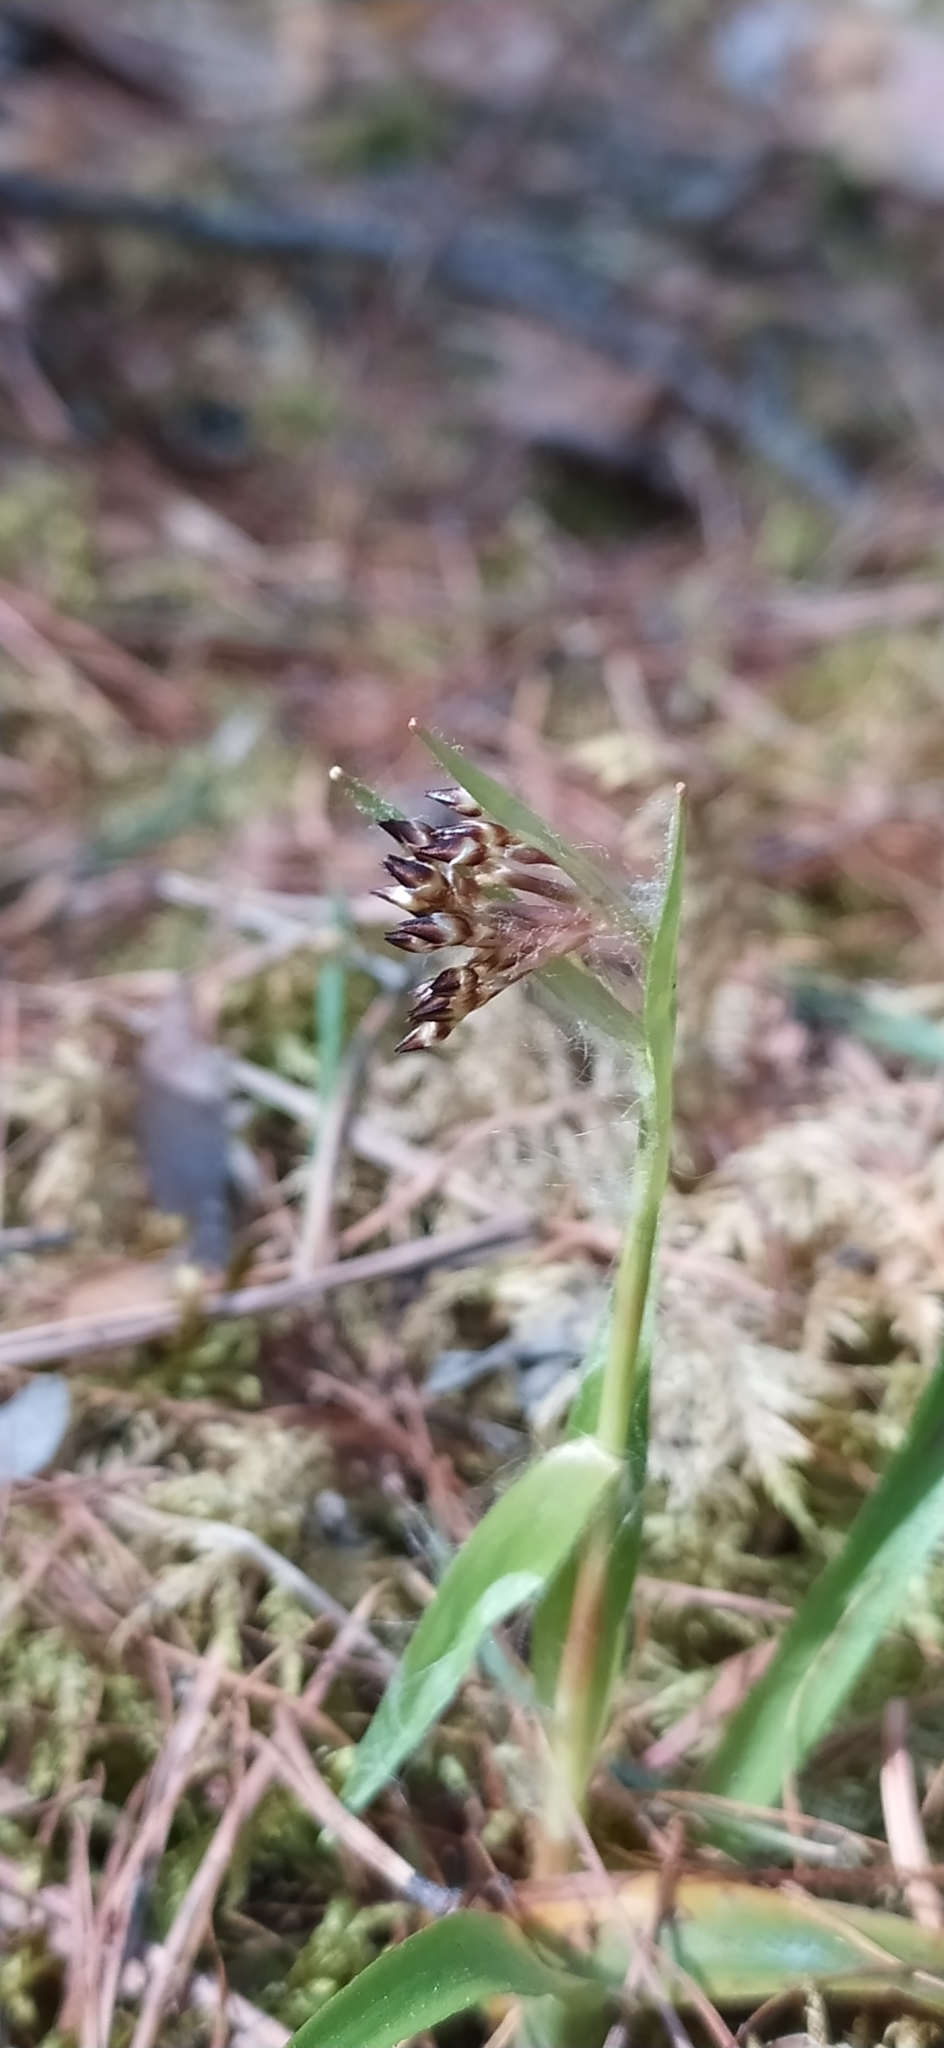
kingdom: Plantae
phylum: Tracheophyta
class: Liliopsida
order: Poales
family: Juncaceae
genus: Luzula
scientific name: Luzula pilosa
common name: Hairy wood-rush
